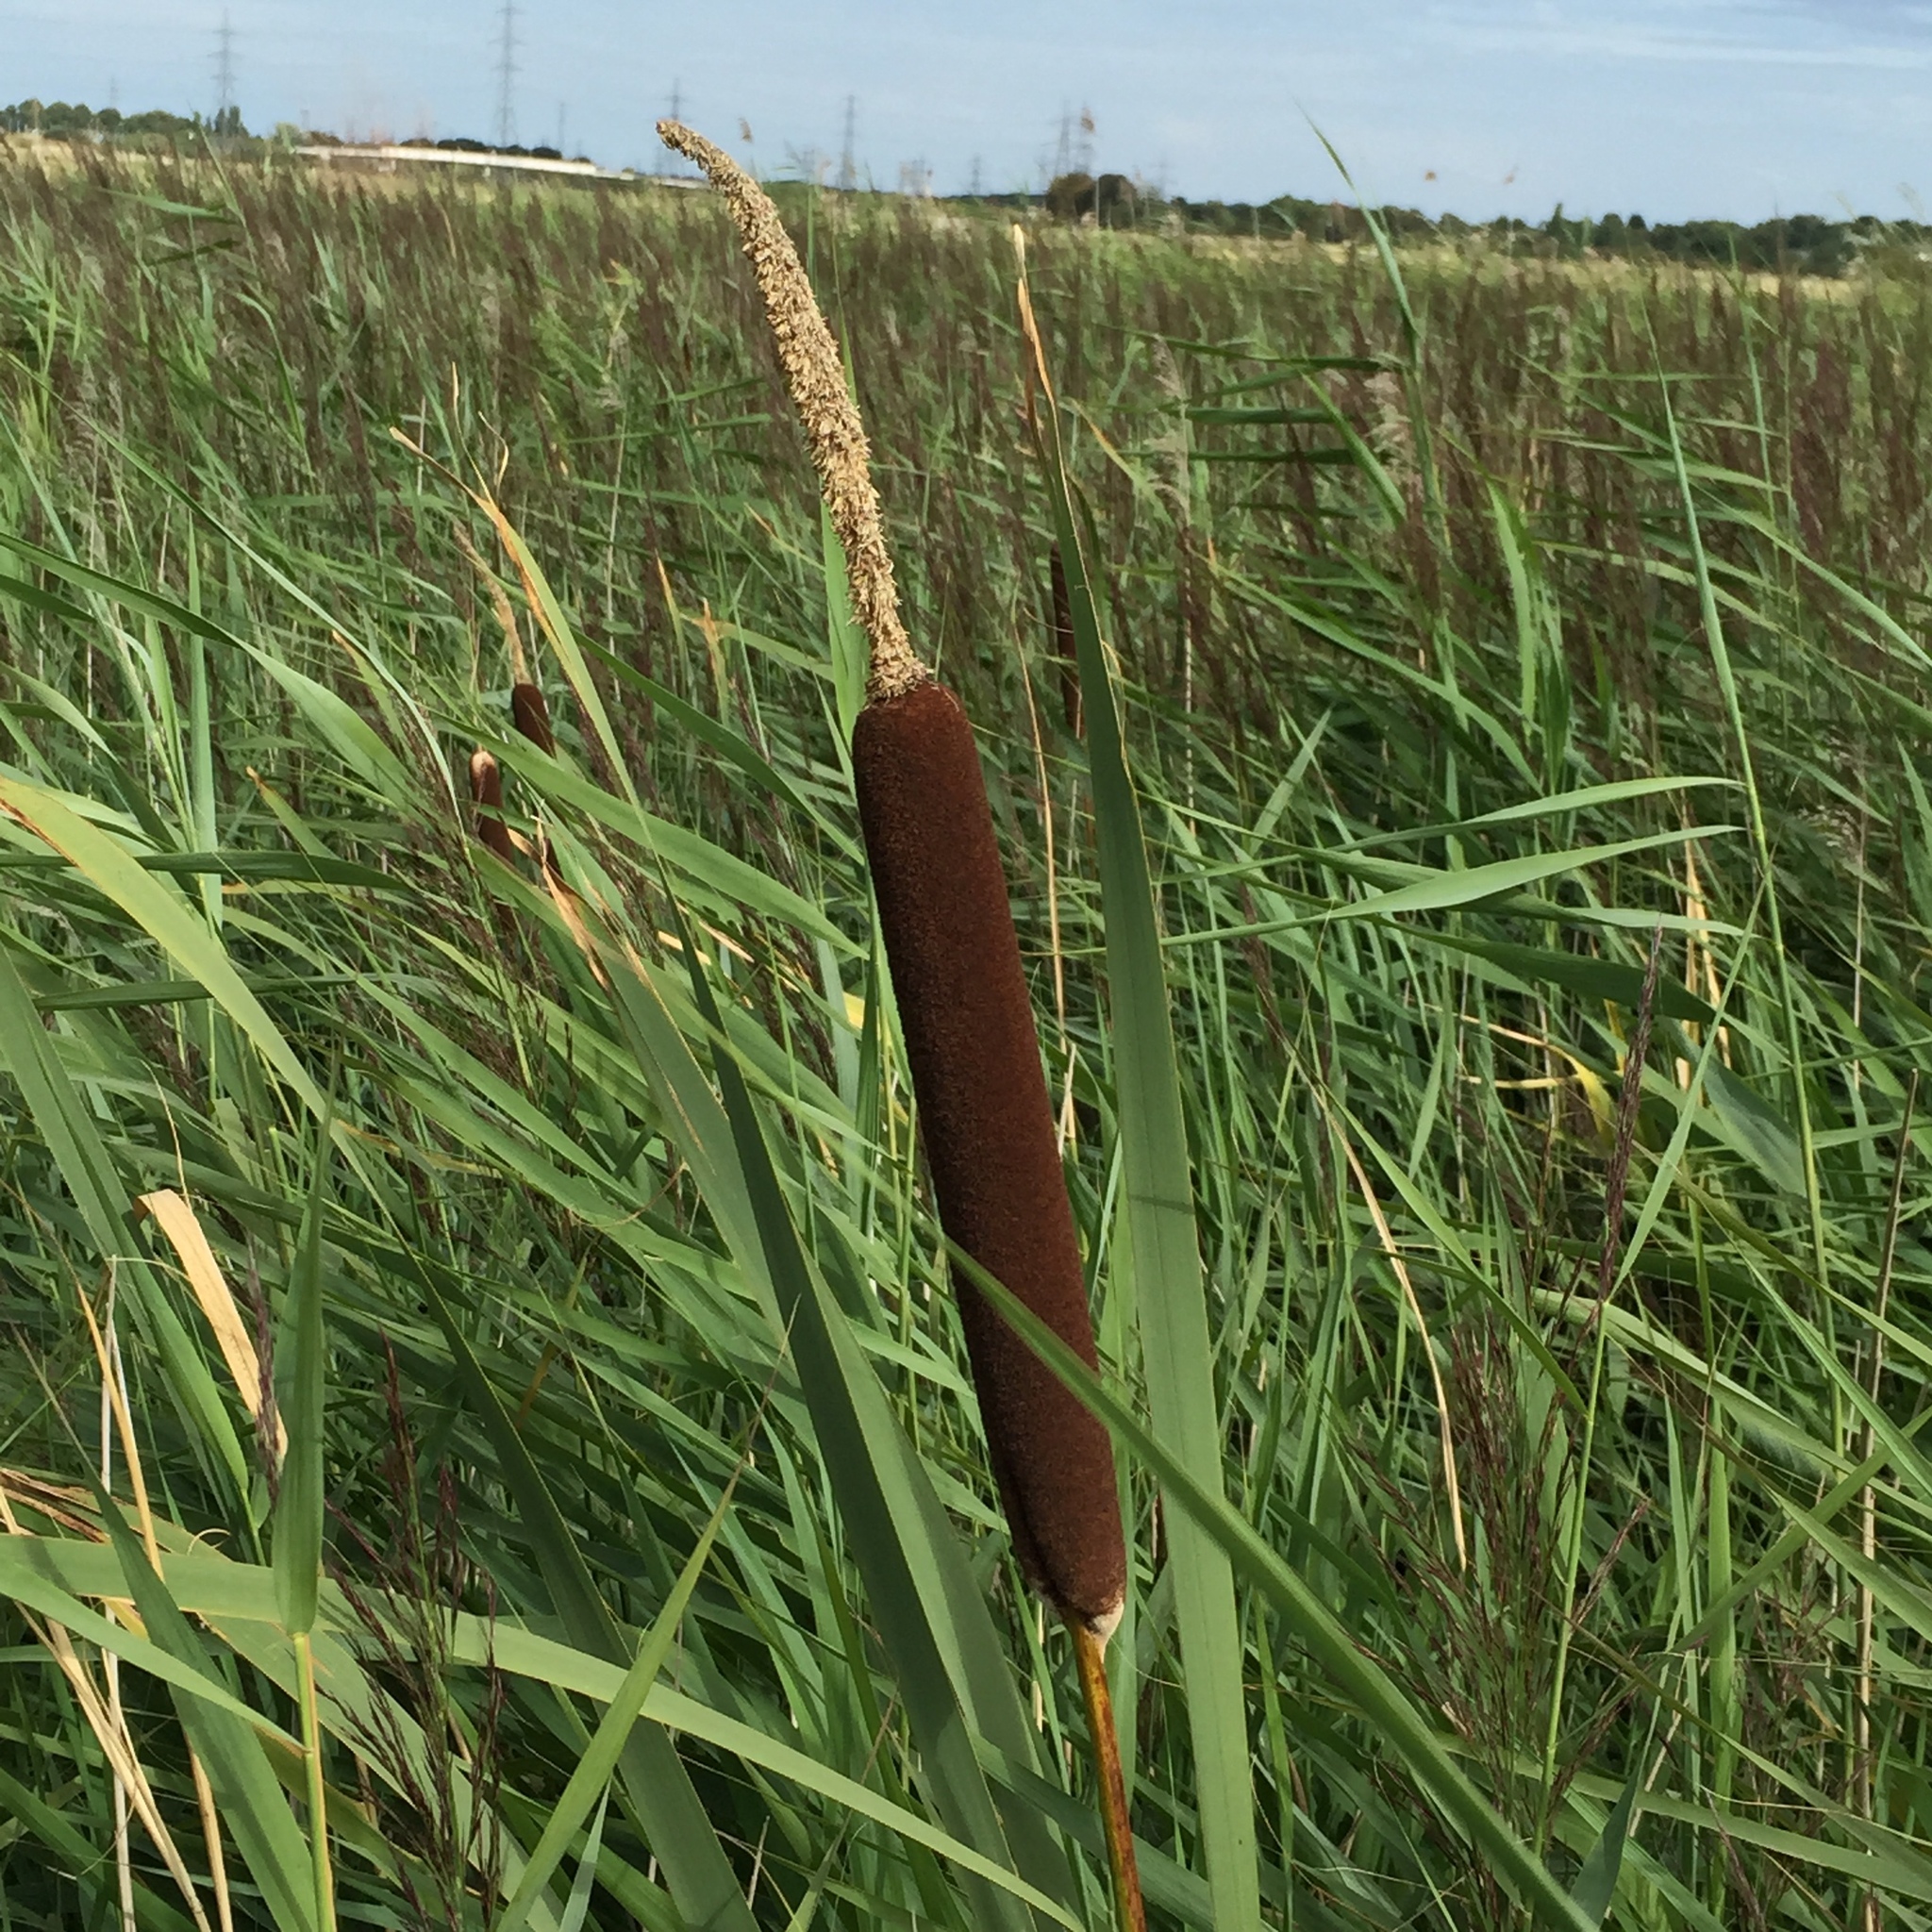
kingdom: Plantae
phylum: Tracheophyta
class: Liliopsida
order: Poales
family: Typhaceae
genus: Typha
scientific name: Typha latifolia
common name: Broadleaf cattail
